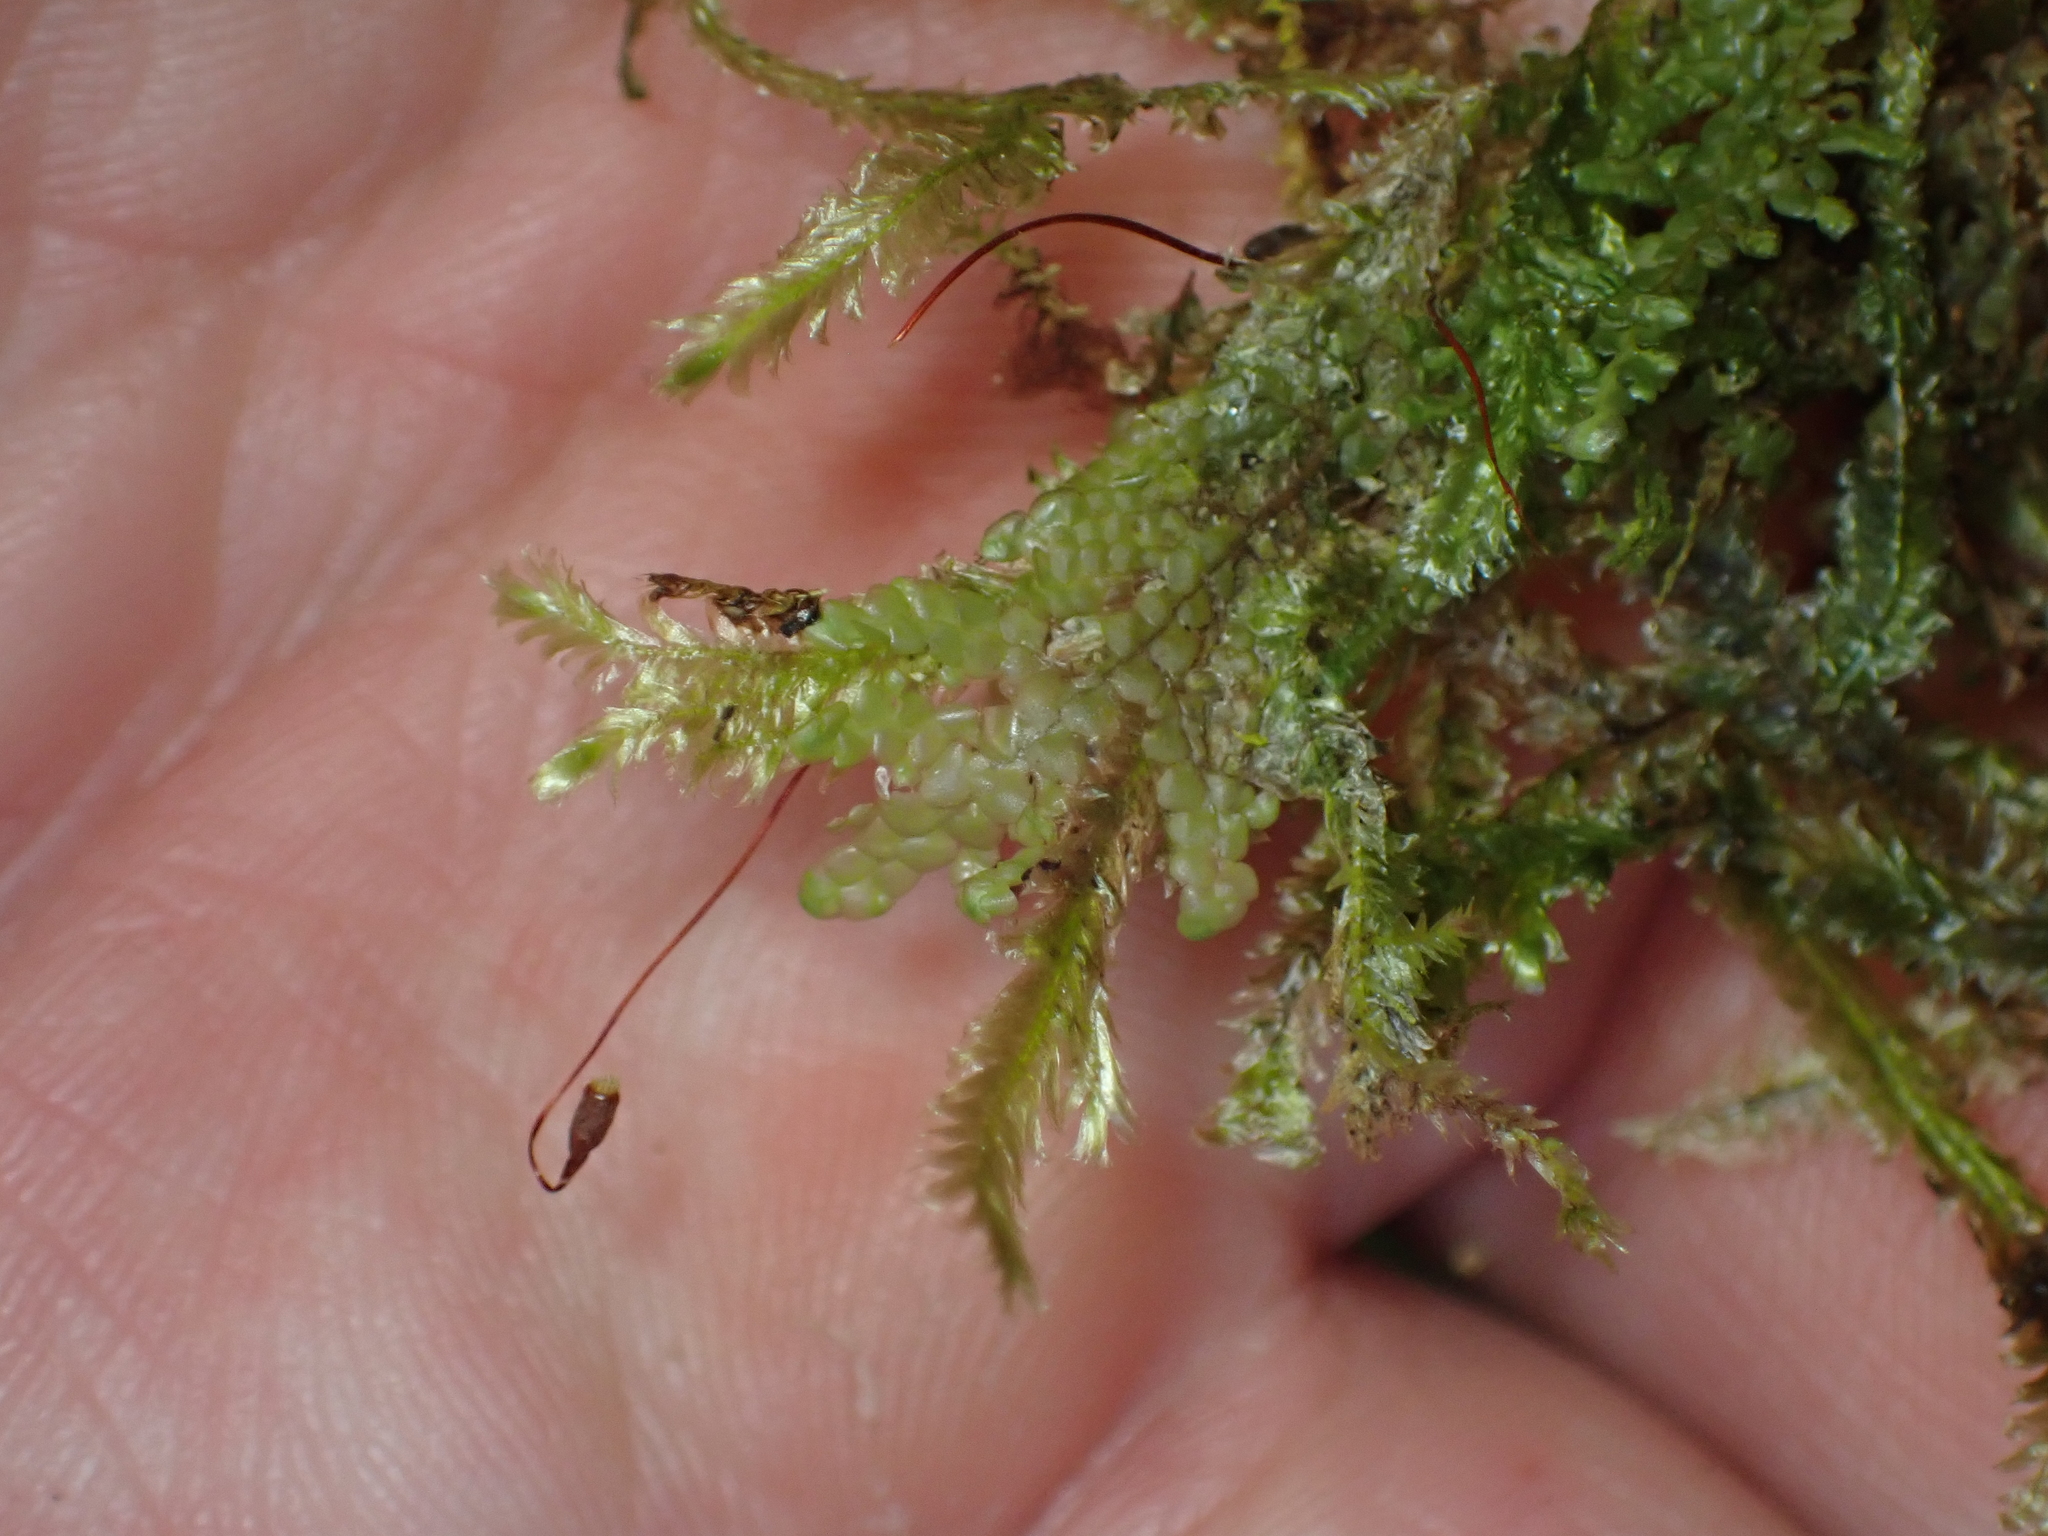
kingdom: Plantae
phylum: Bryophyta
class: Bryopsida
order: Hypnales
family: Lembophyllaceae
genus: Margrethypnum
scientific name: Margrethypnum falcifolium
